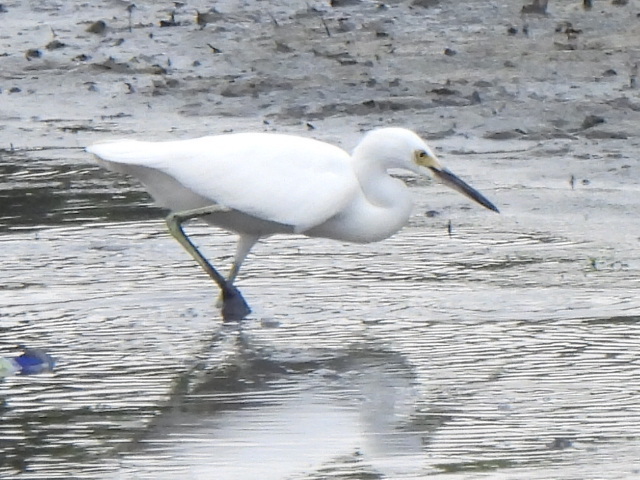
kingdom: Animalia
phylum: Chordata
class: Aves
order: Pelecaniformes
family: Ardeidae
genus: Egretta
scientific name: Egretta thula
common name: Snowy egret
